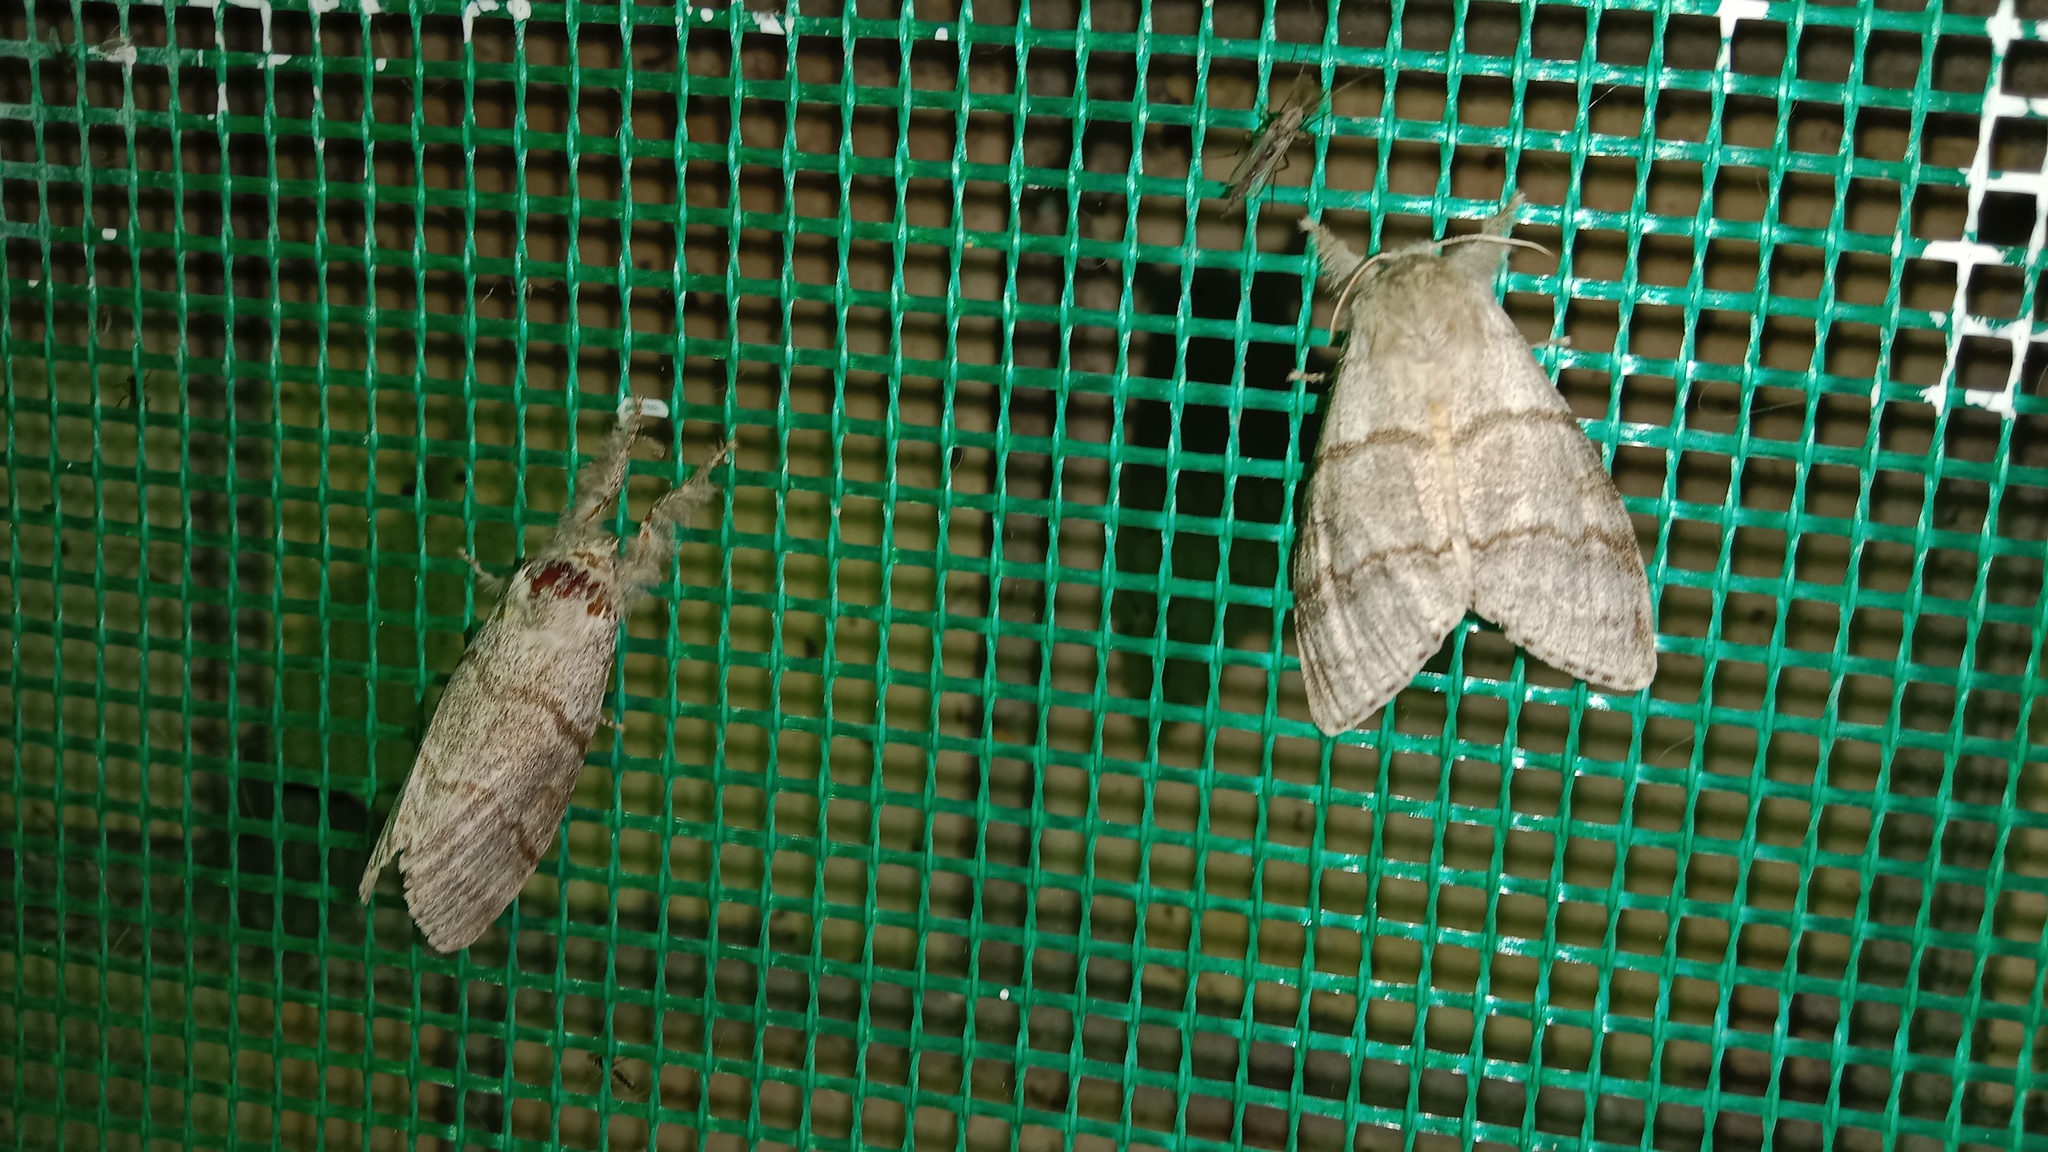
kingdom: Animalia
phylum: Arthropoda
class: Insecta
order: Lepidoptera
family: Erebidae
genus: Calliteara
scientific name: Calliteara pudibunda
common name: Pale tussock
